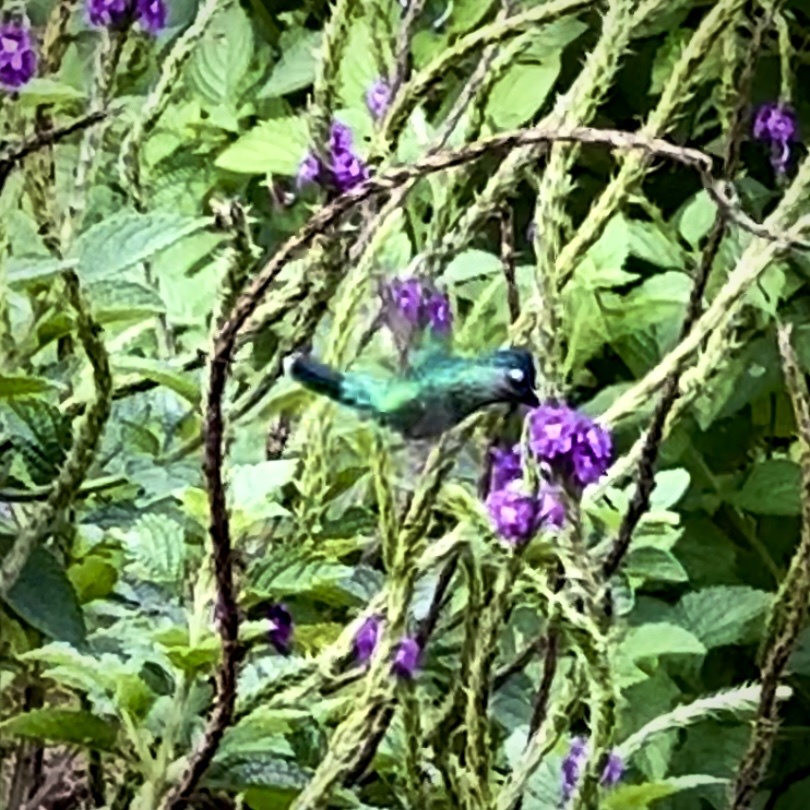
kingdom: Animalia
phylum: Chordata
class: Aves
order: Apodiformes
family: Trochilidae
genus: Klais
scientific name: Klais guimeti
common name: Violet-headed hummingbird
